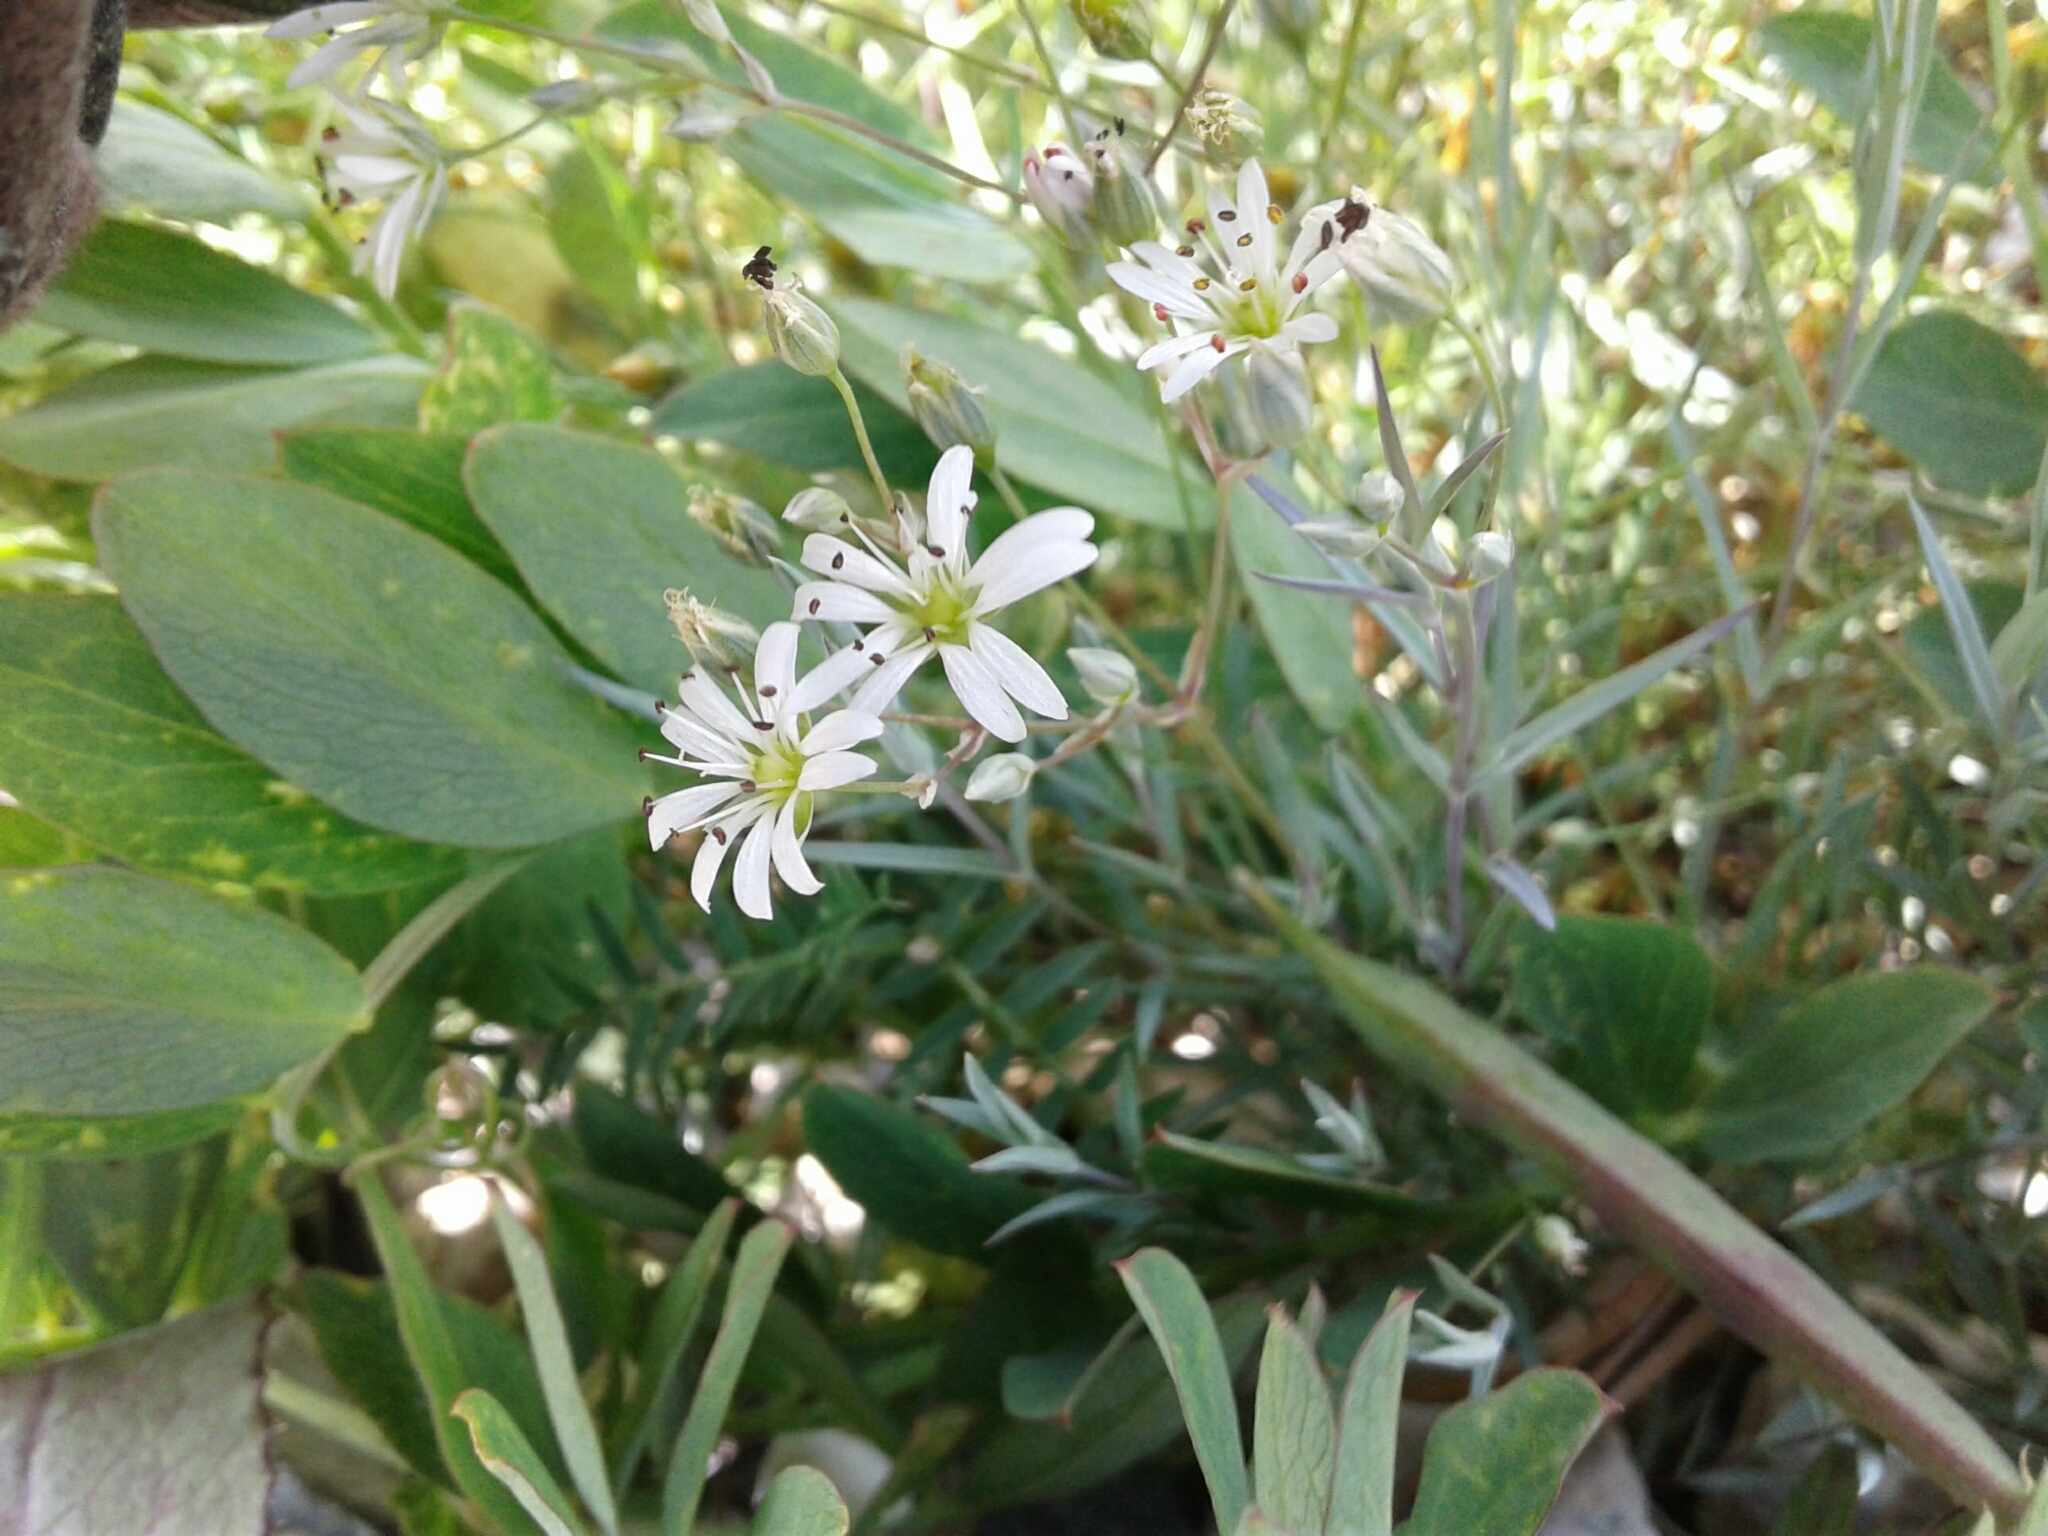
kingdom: Plantae
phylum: Tracheophyta
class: Magnoliopsida
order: Caryophyllales
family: Caryophyllaceae
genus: Stellaria
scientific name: Stellaria longipes
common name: Goldie's starwort
